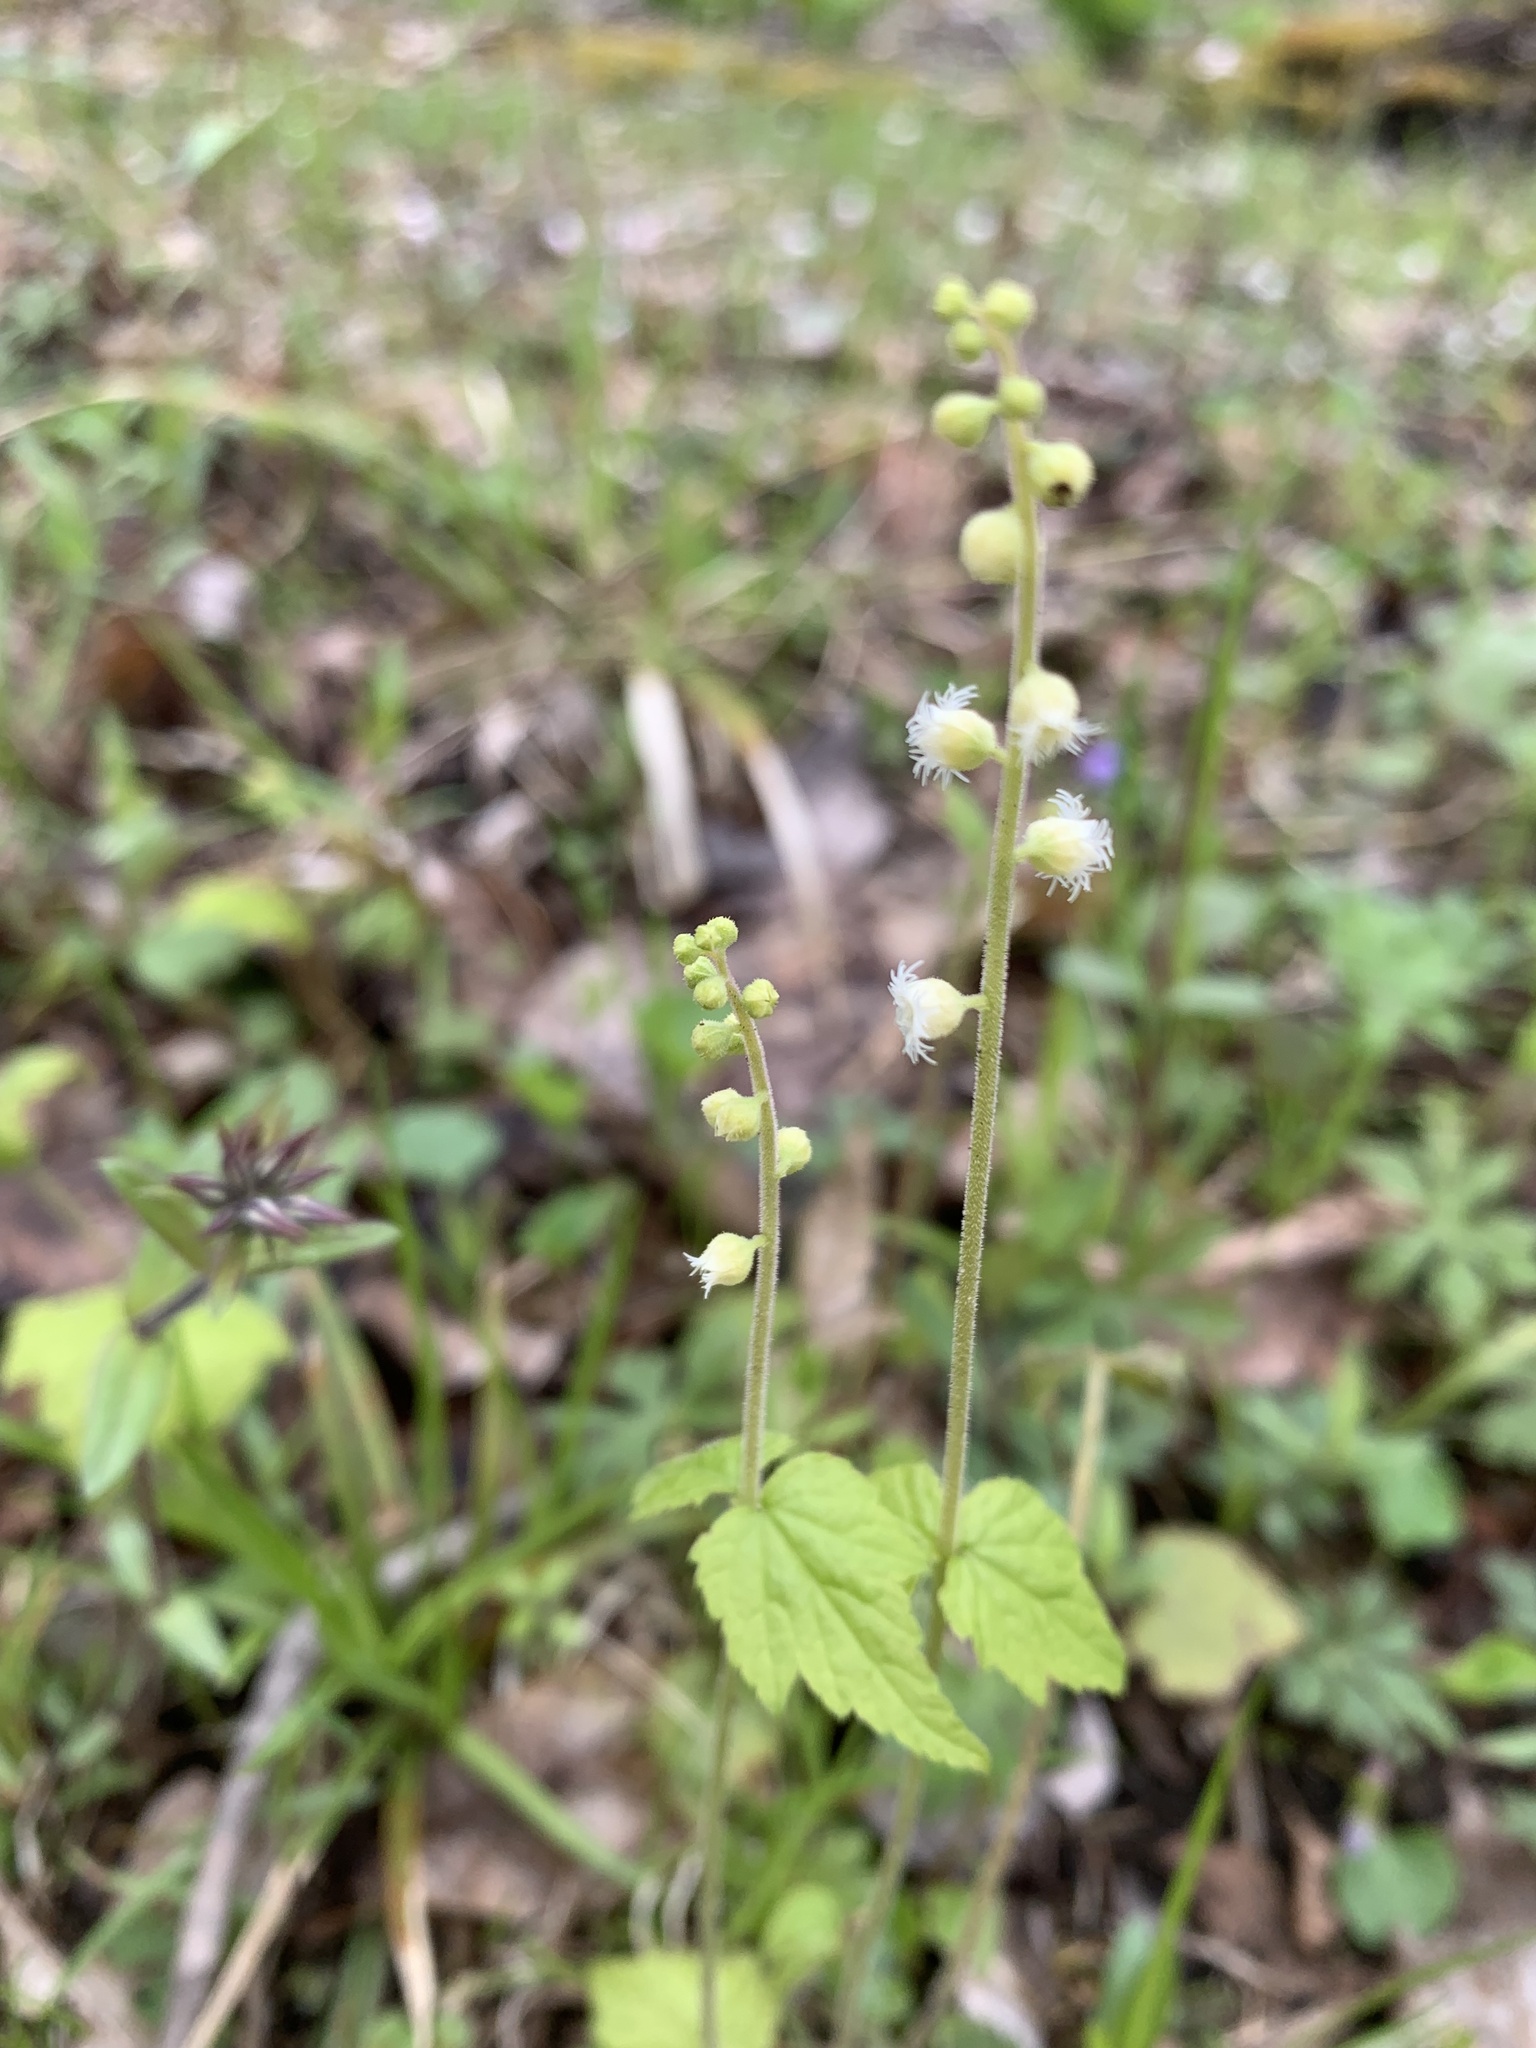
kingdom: Plantae
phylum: Tracheophyta
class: Magnoliopsida
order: Saxifragales
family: Saxifragaceae
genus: Mitella
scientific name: Mitella diphylla
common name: Coolwort
